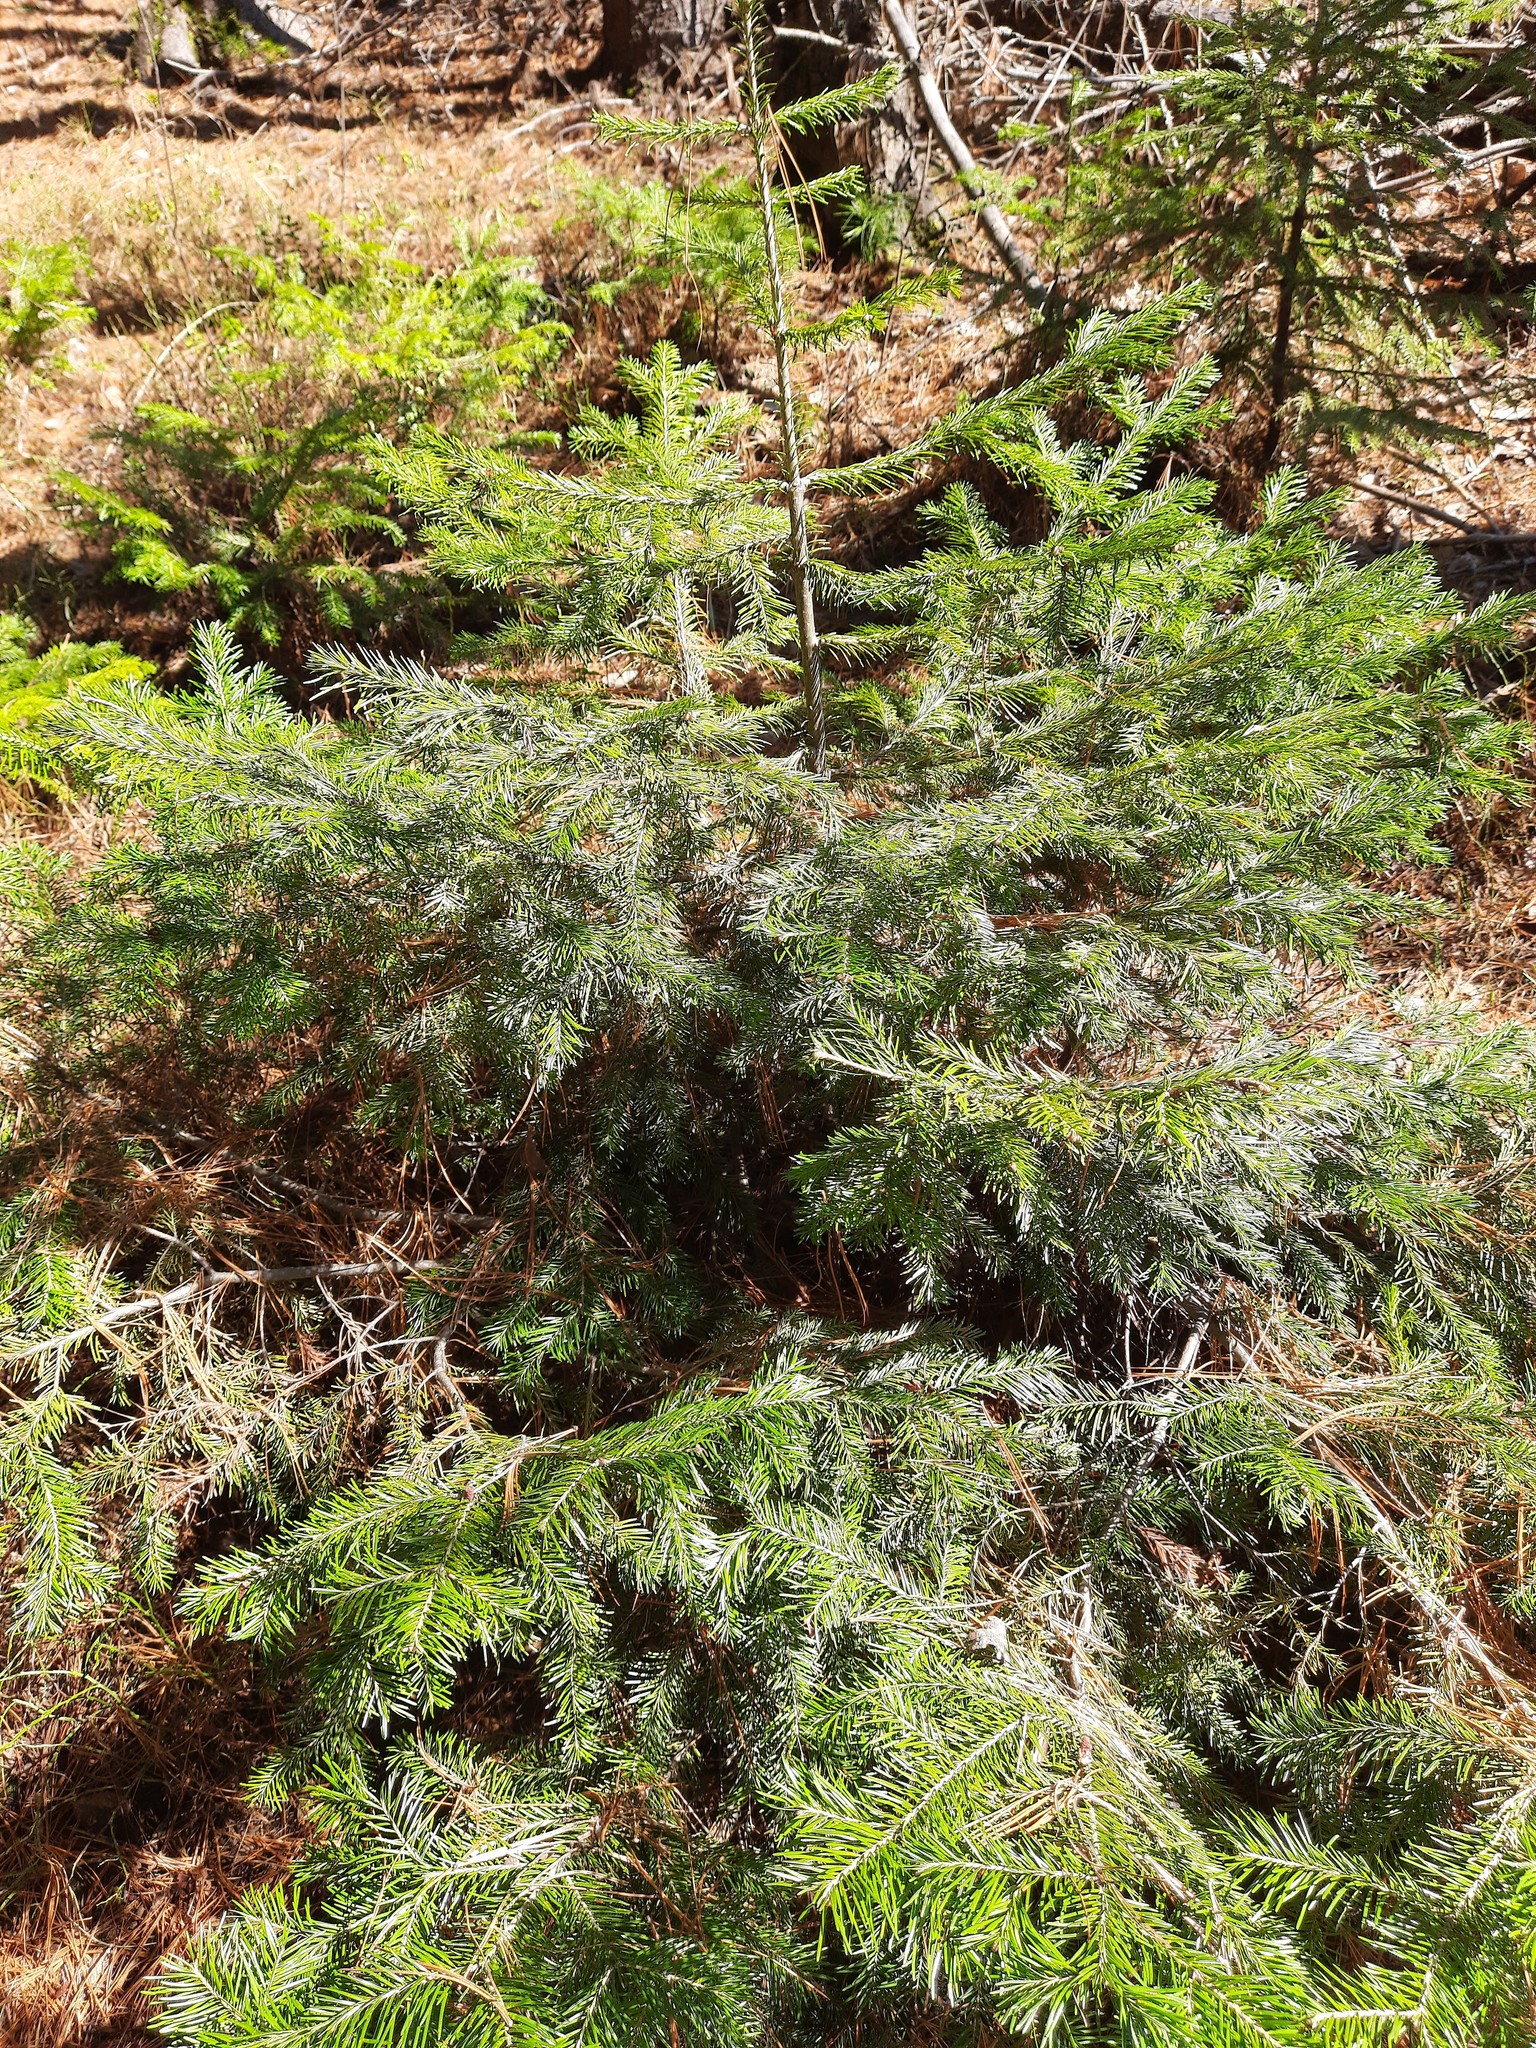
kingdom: Plantae
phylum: Tracheophyta
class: Pinopsida
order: Pinales
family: Pinaceae
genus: Abies
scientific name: Abies sibirica
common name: Siberian fir
